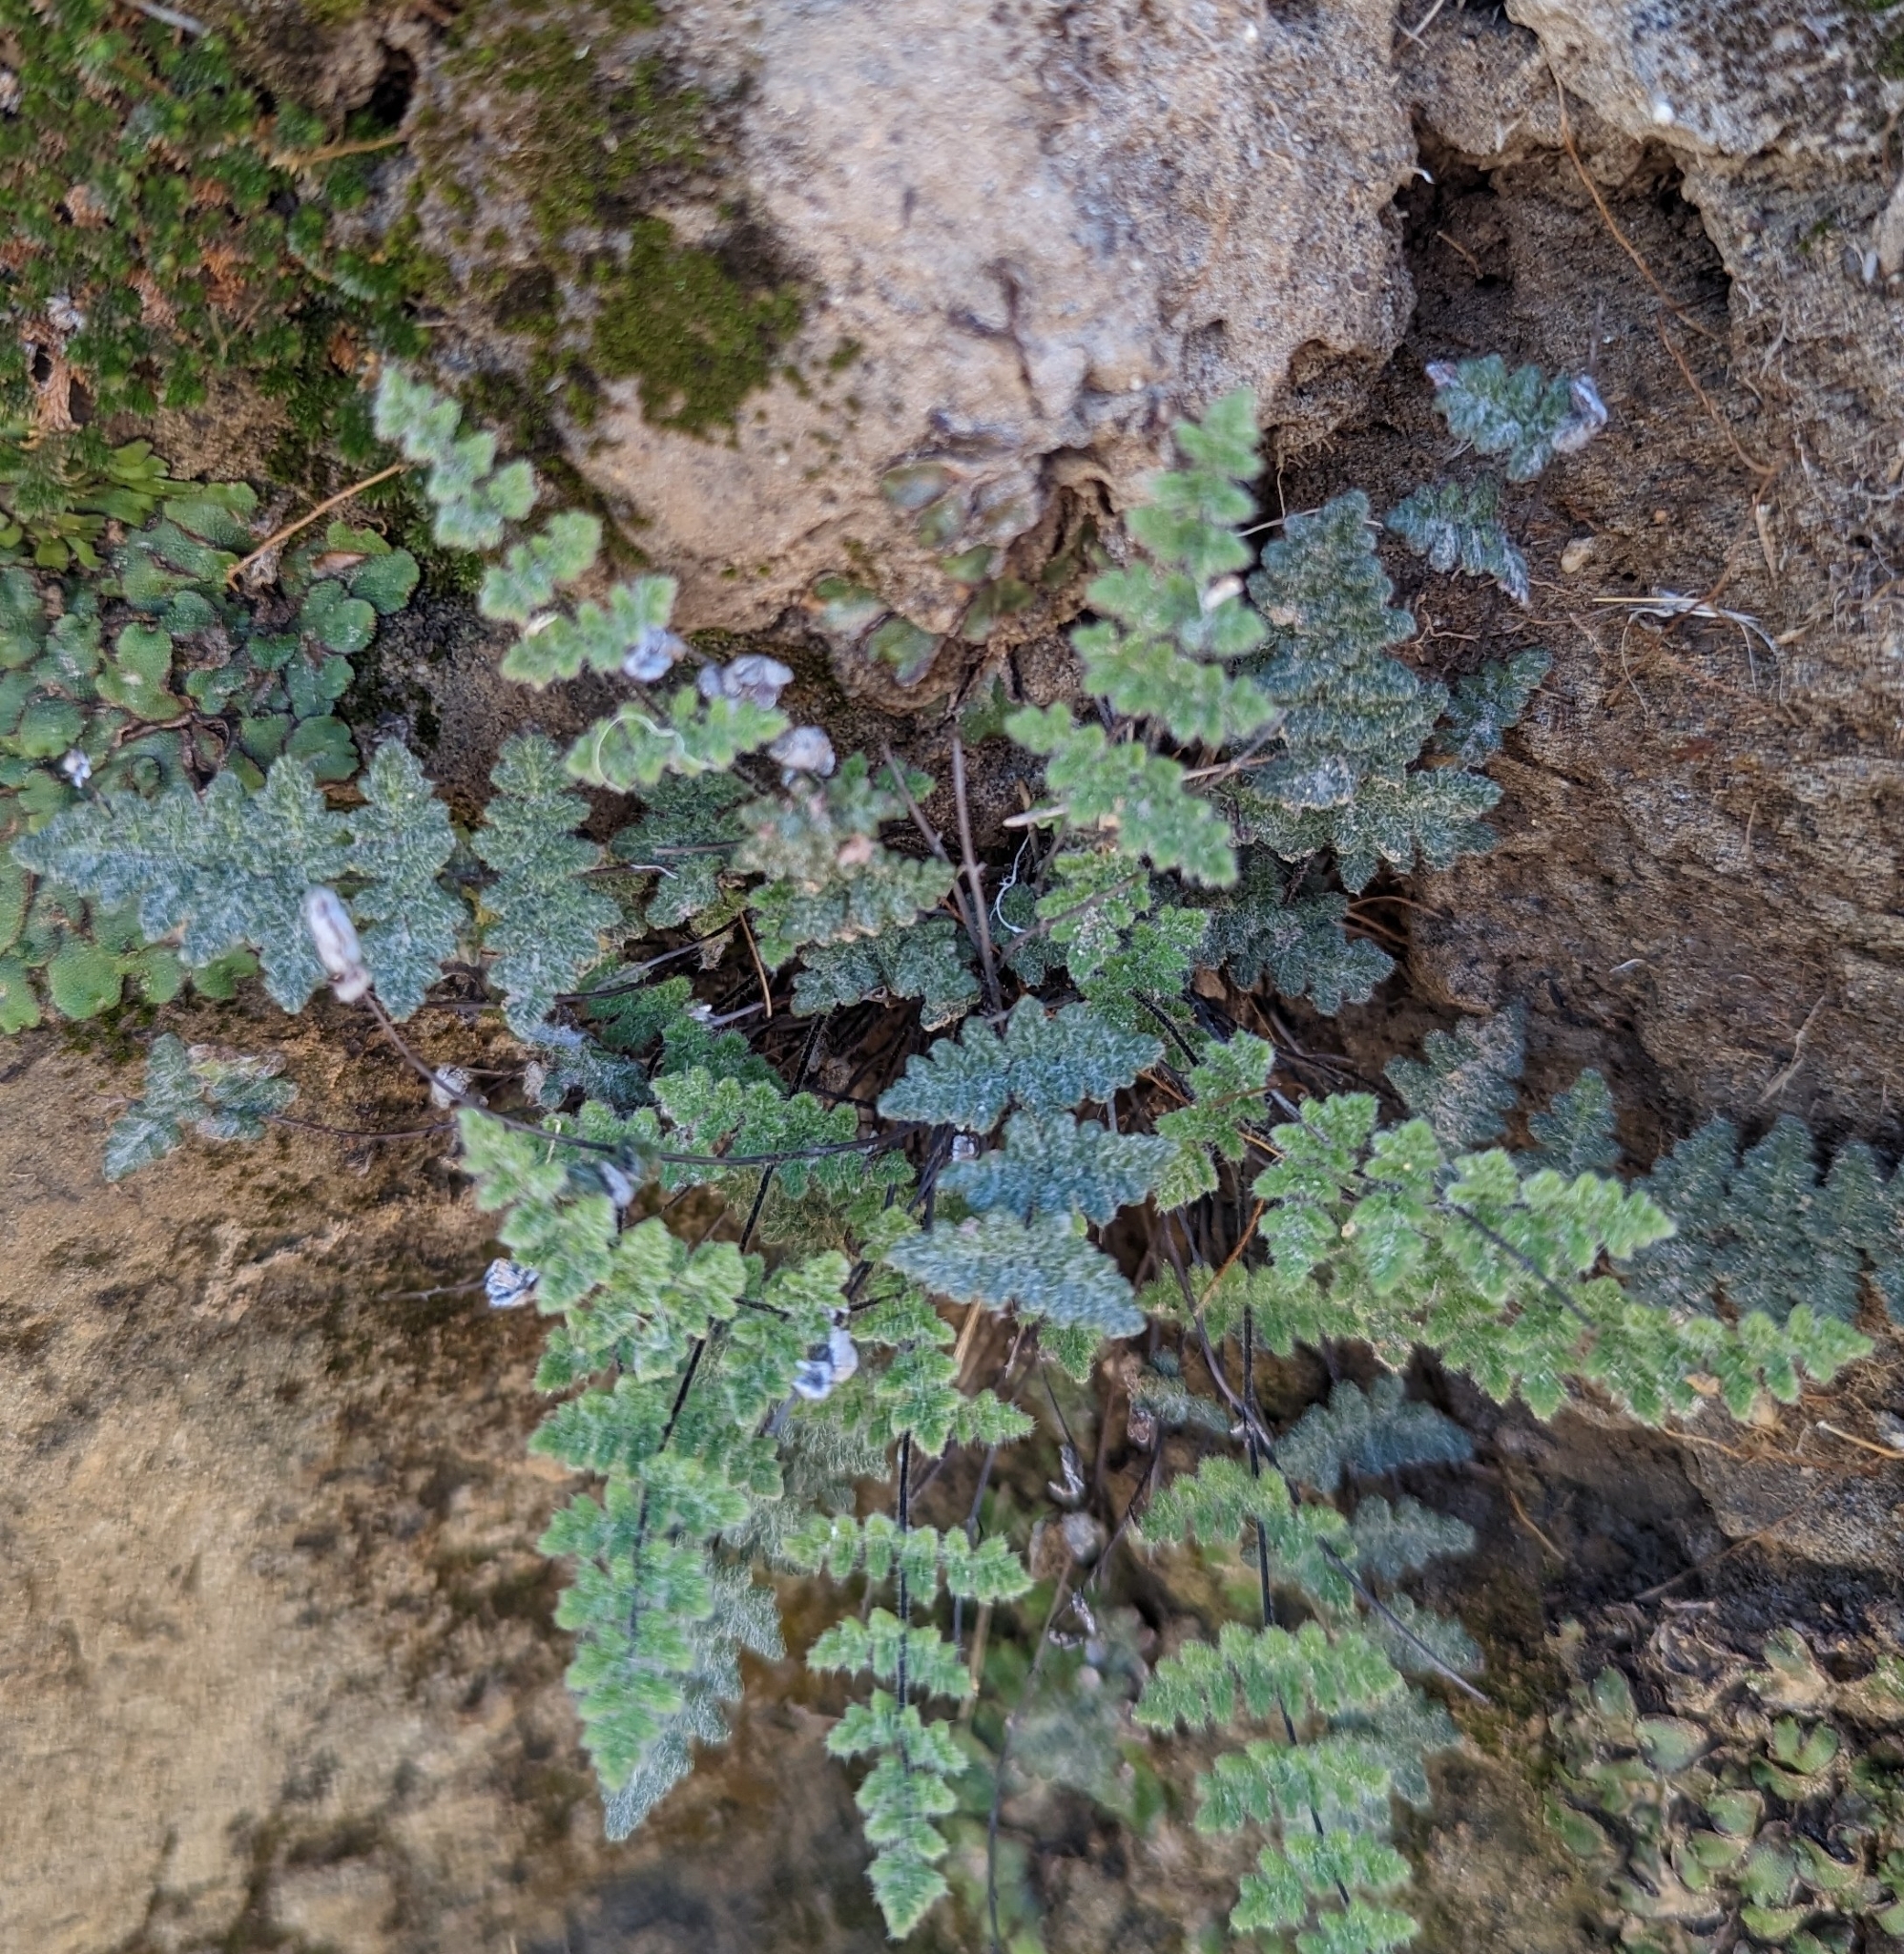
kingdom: Plantae
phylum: Tracheophyta
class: Polypodiopsida
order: Polypodiales
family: Pteridaceae
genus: Myriopteris
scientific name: Myriopteris parryi
